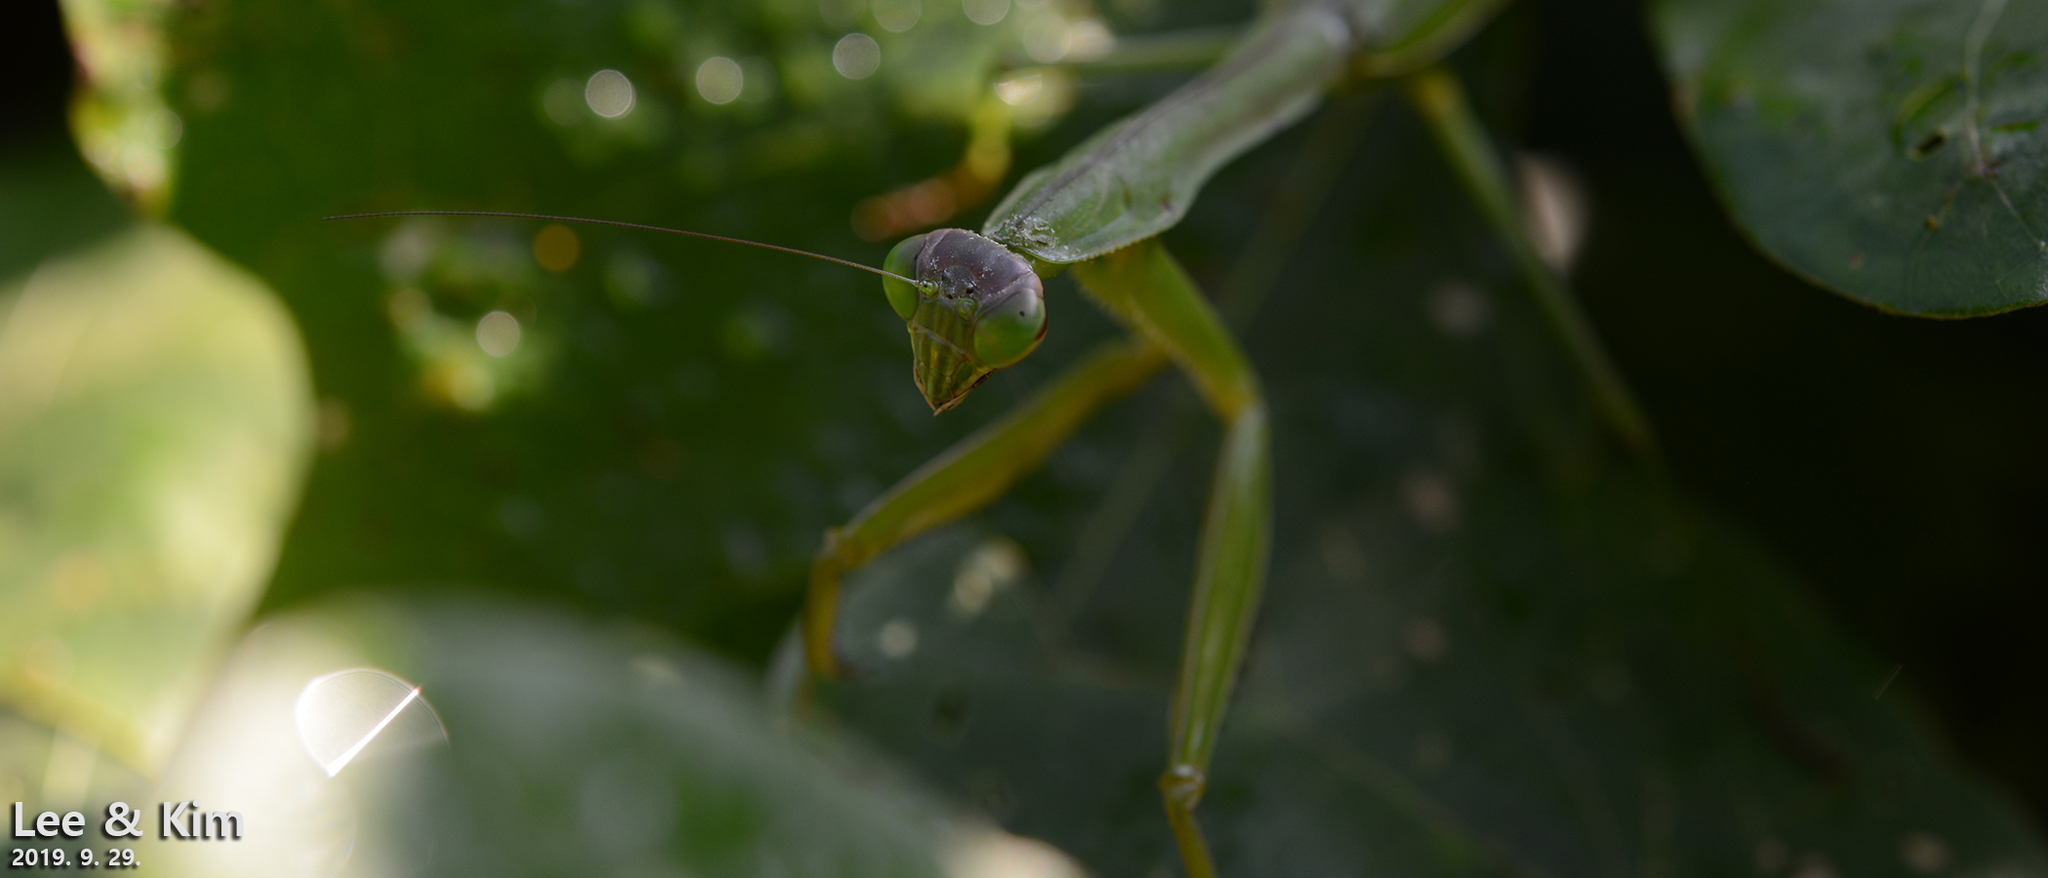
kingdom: Animalia
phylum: Arthropoda
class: Insecta
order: Mantodea
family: Mantidae
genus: Tenodera
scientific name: Tenodera sinensis
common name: Chinese mantis
